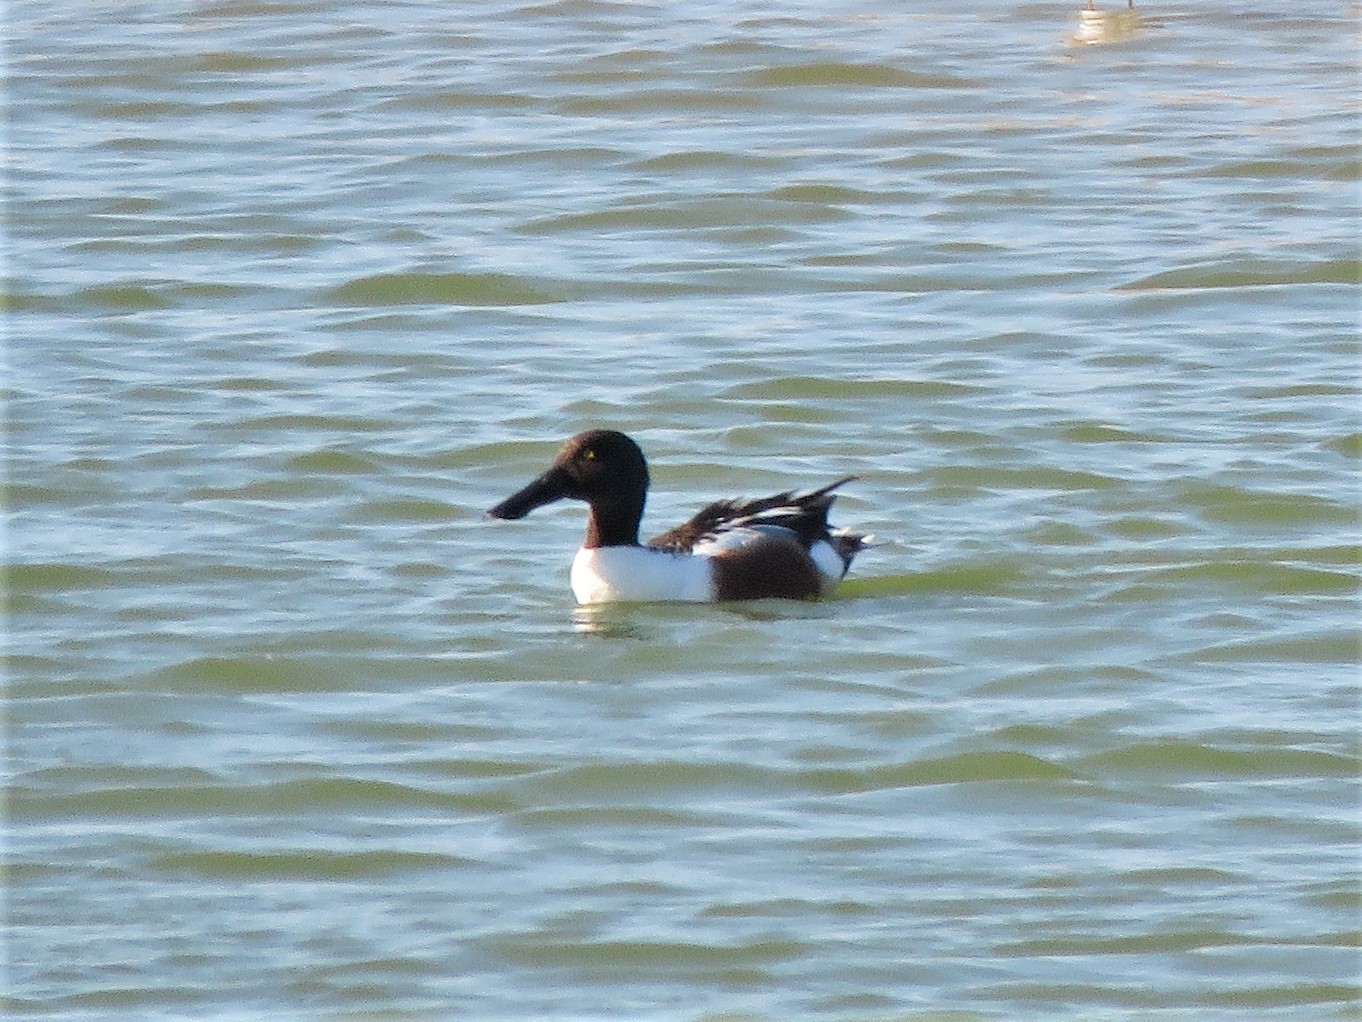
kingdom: Animalia
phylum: Chordata
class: Aves
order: Anseriformes
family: Anatidae
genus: Spatula
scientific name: Spatula clypeata
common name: Northern shoveler
